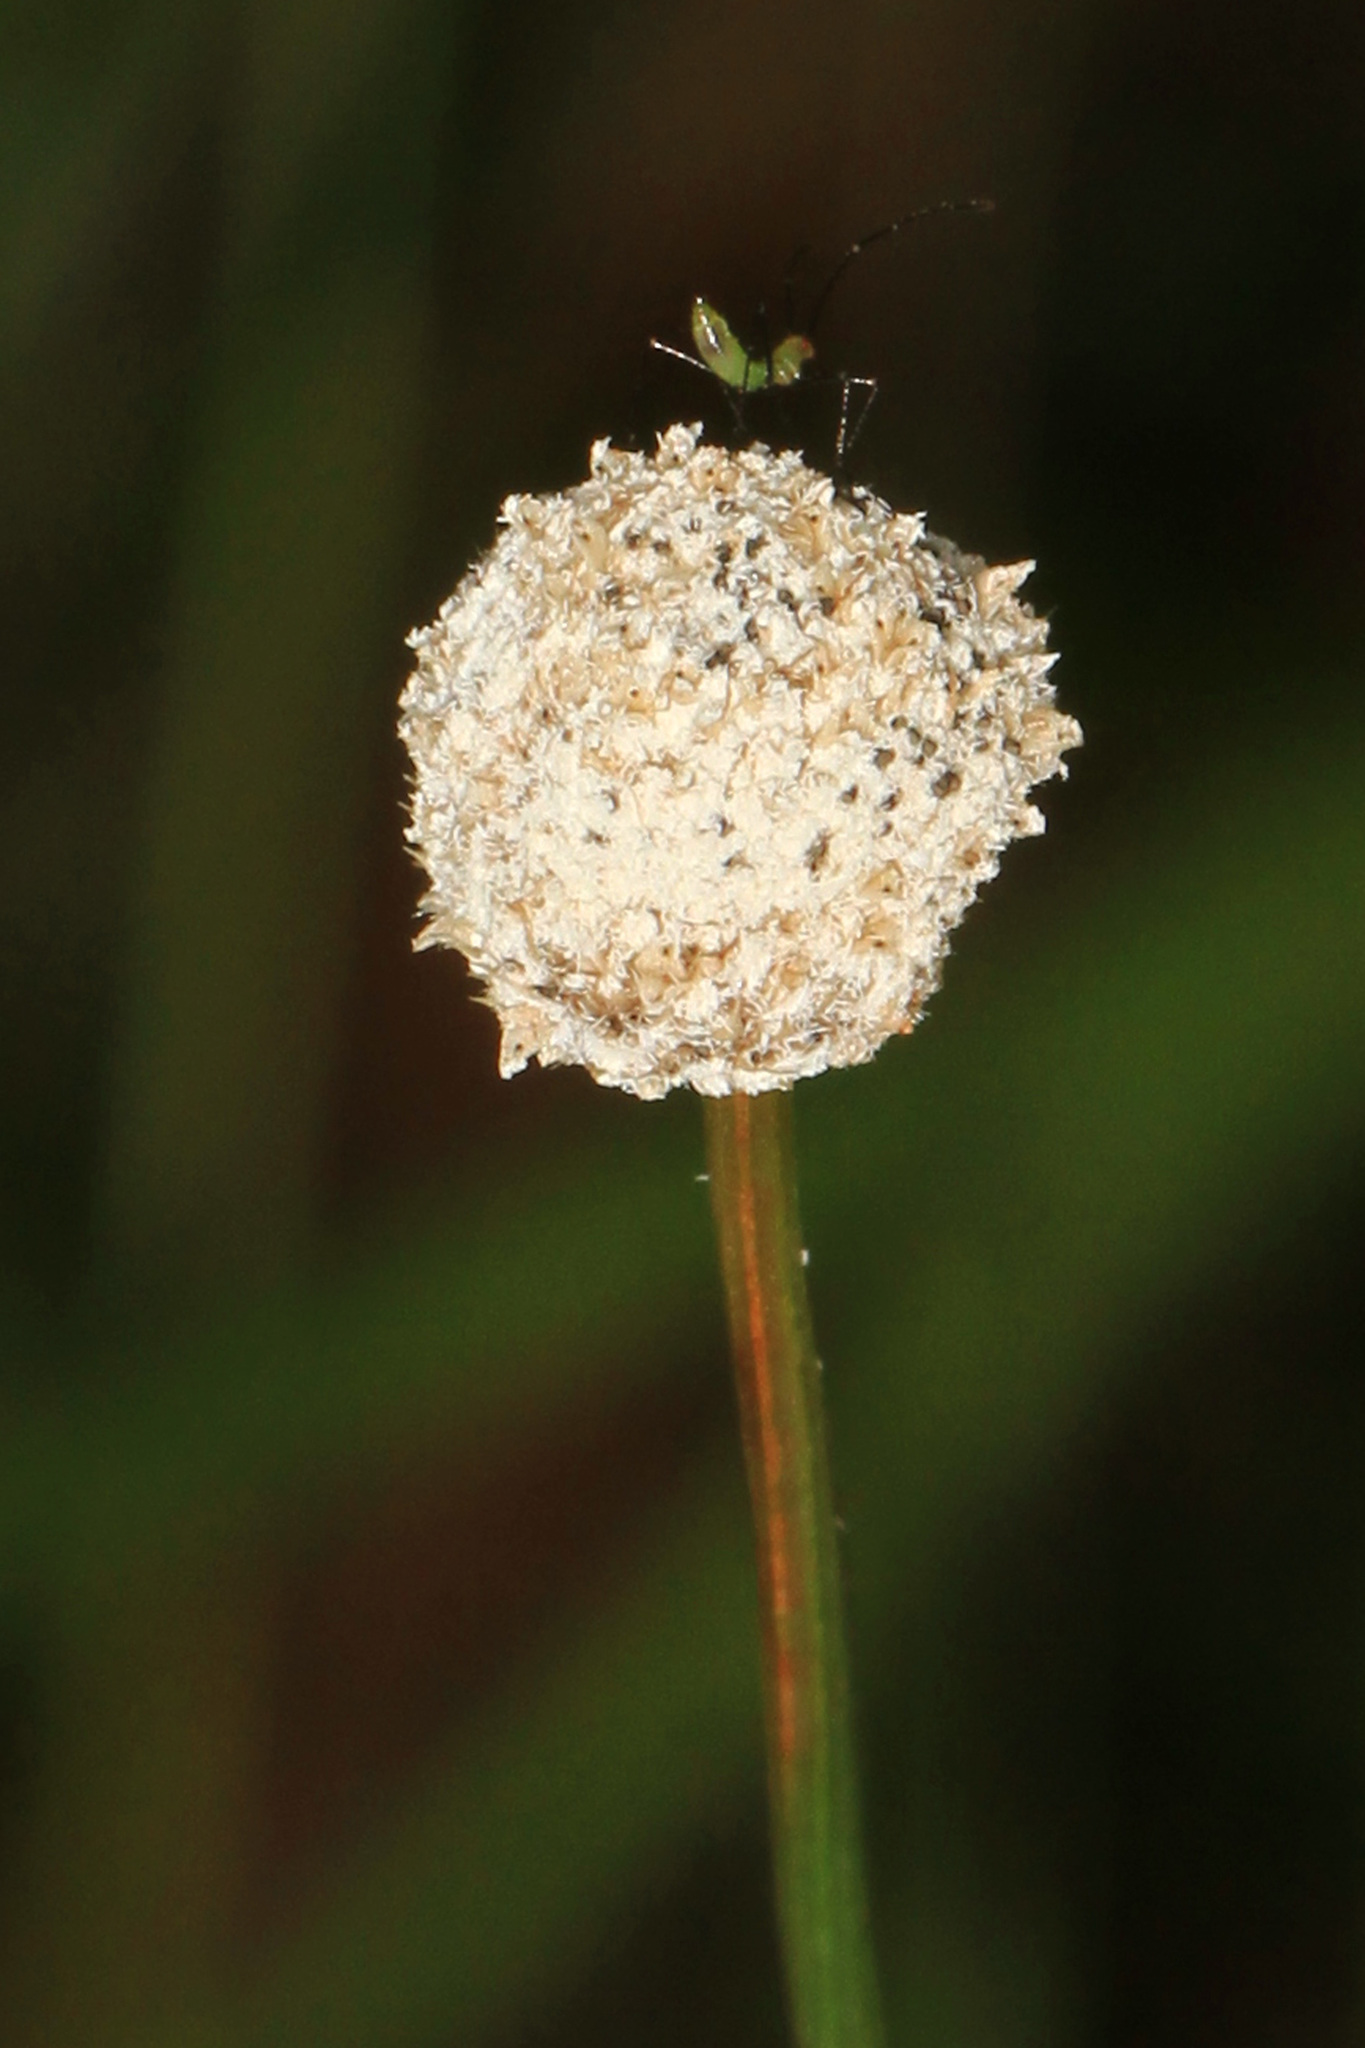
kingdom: Plantae
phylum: Tracheophyta
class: Liliopsida
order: Poales
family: Eriocaulaceae
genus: Eriocaulon
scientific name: Eriocaulon decangulare
